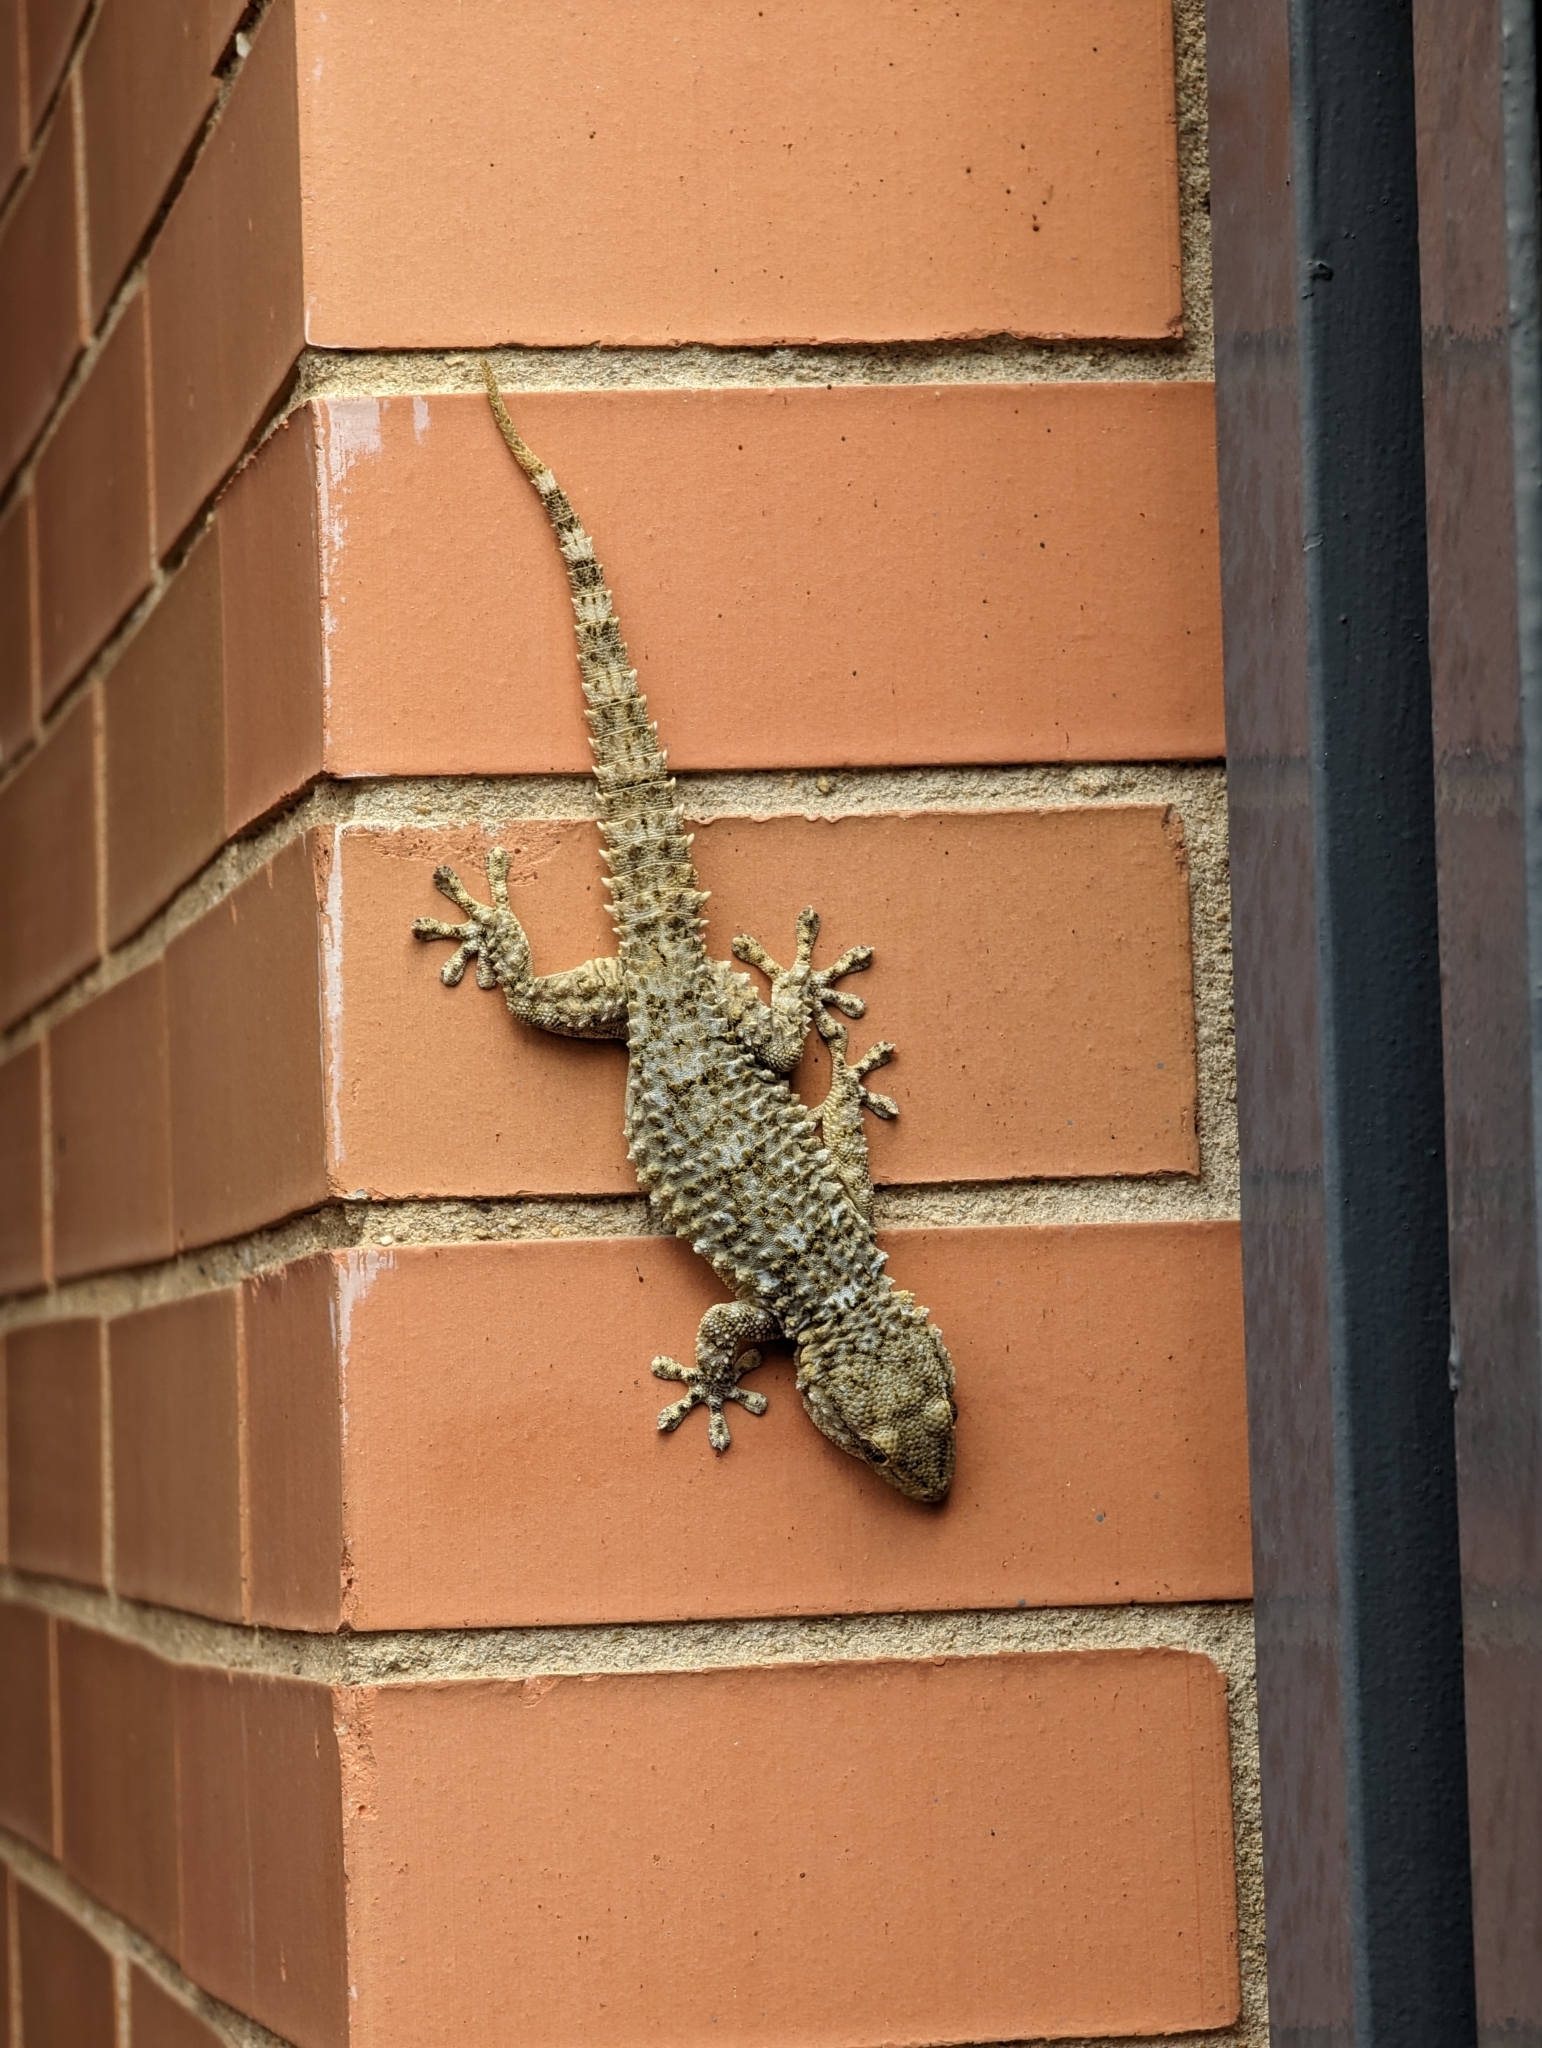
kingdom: Animalia
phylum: Chordata
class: Squamata
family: Phyllodactylidae
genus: Tarentola
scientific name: Tarentola mauritanica
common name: Moorish gecko
